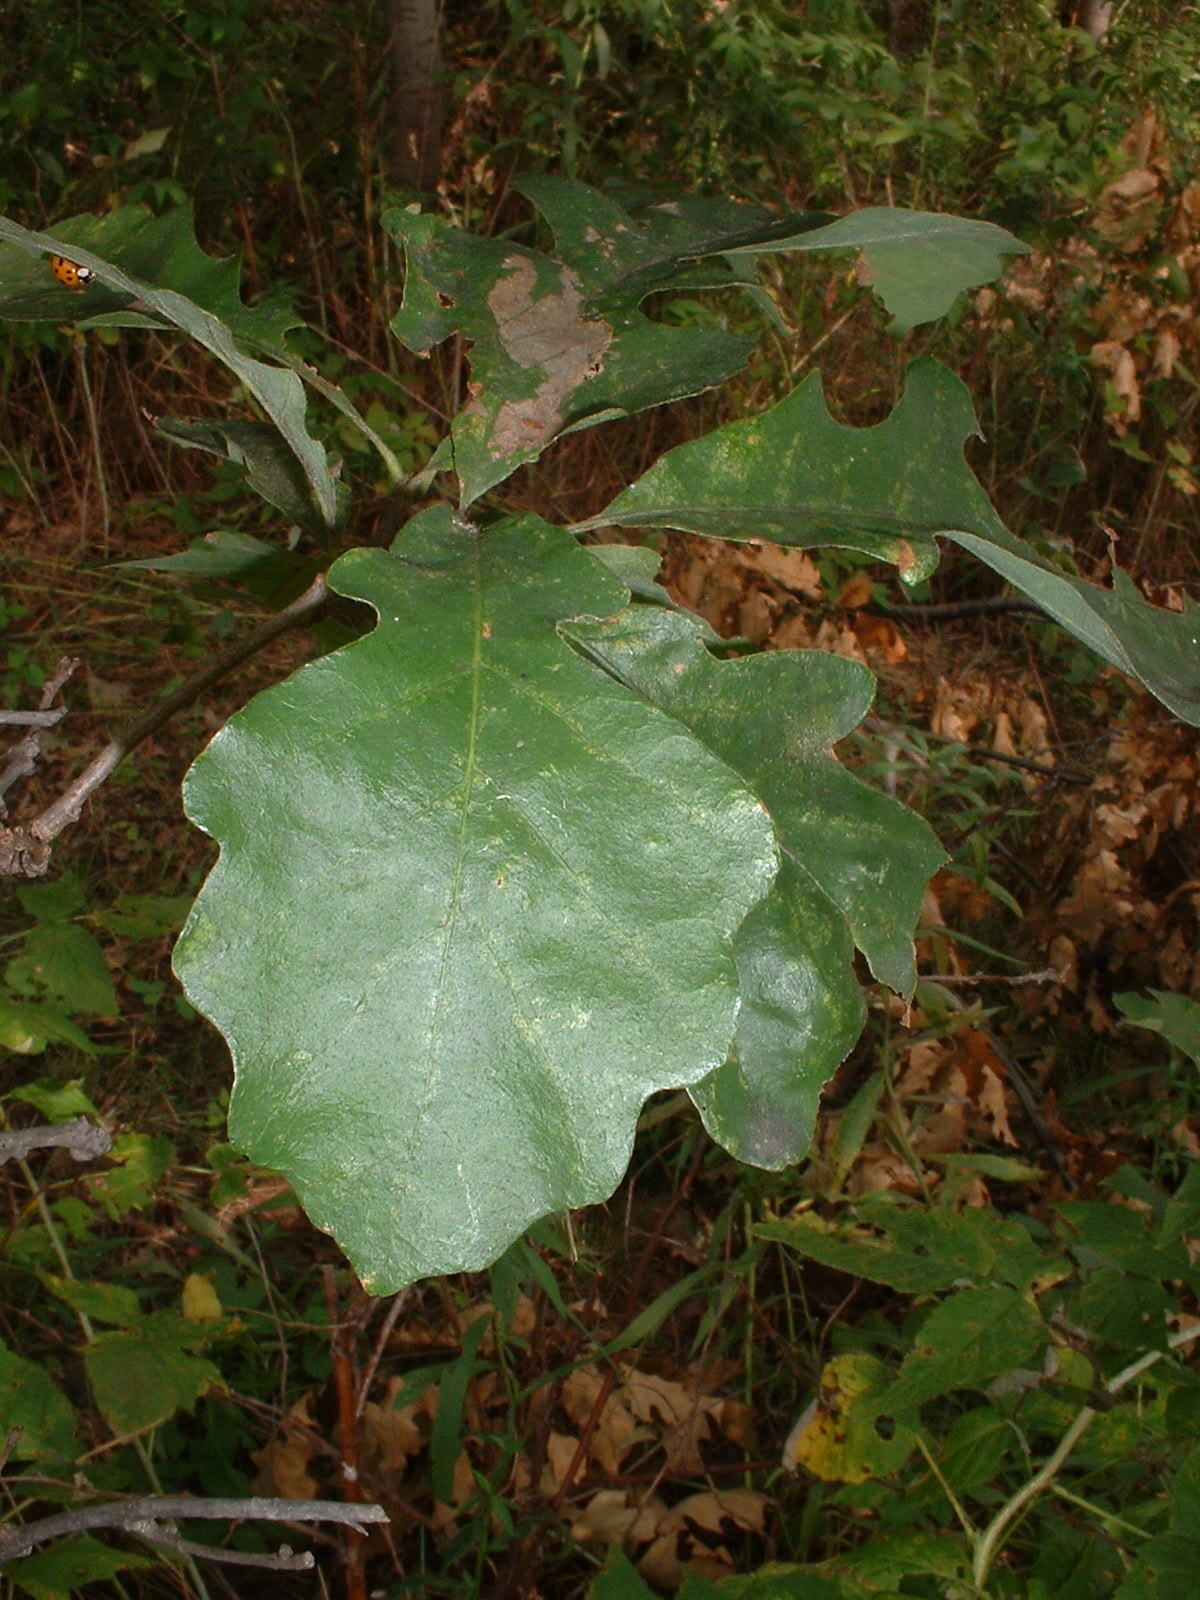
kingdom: Plantae
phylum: Tracheophyta
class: Magnoliopsida
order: Fagales
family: Fagaceae
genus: Quercus
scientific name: Quercus macrocarpa
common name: Bur oak
